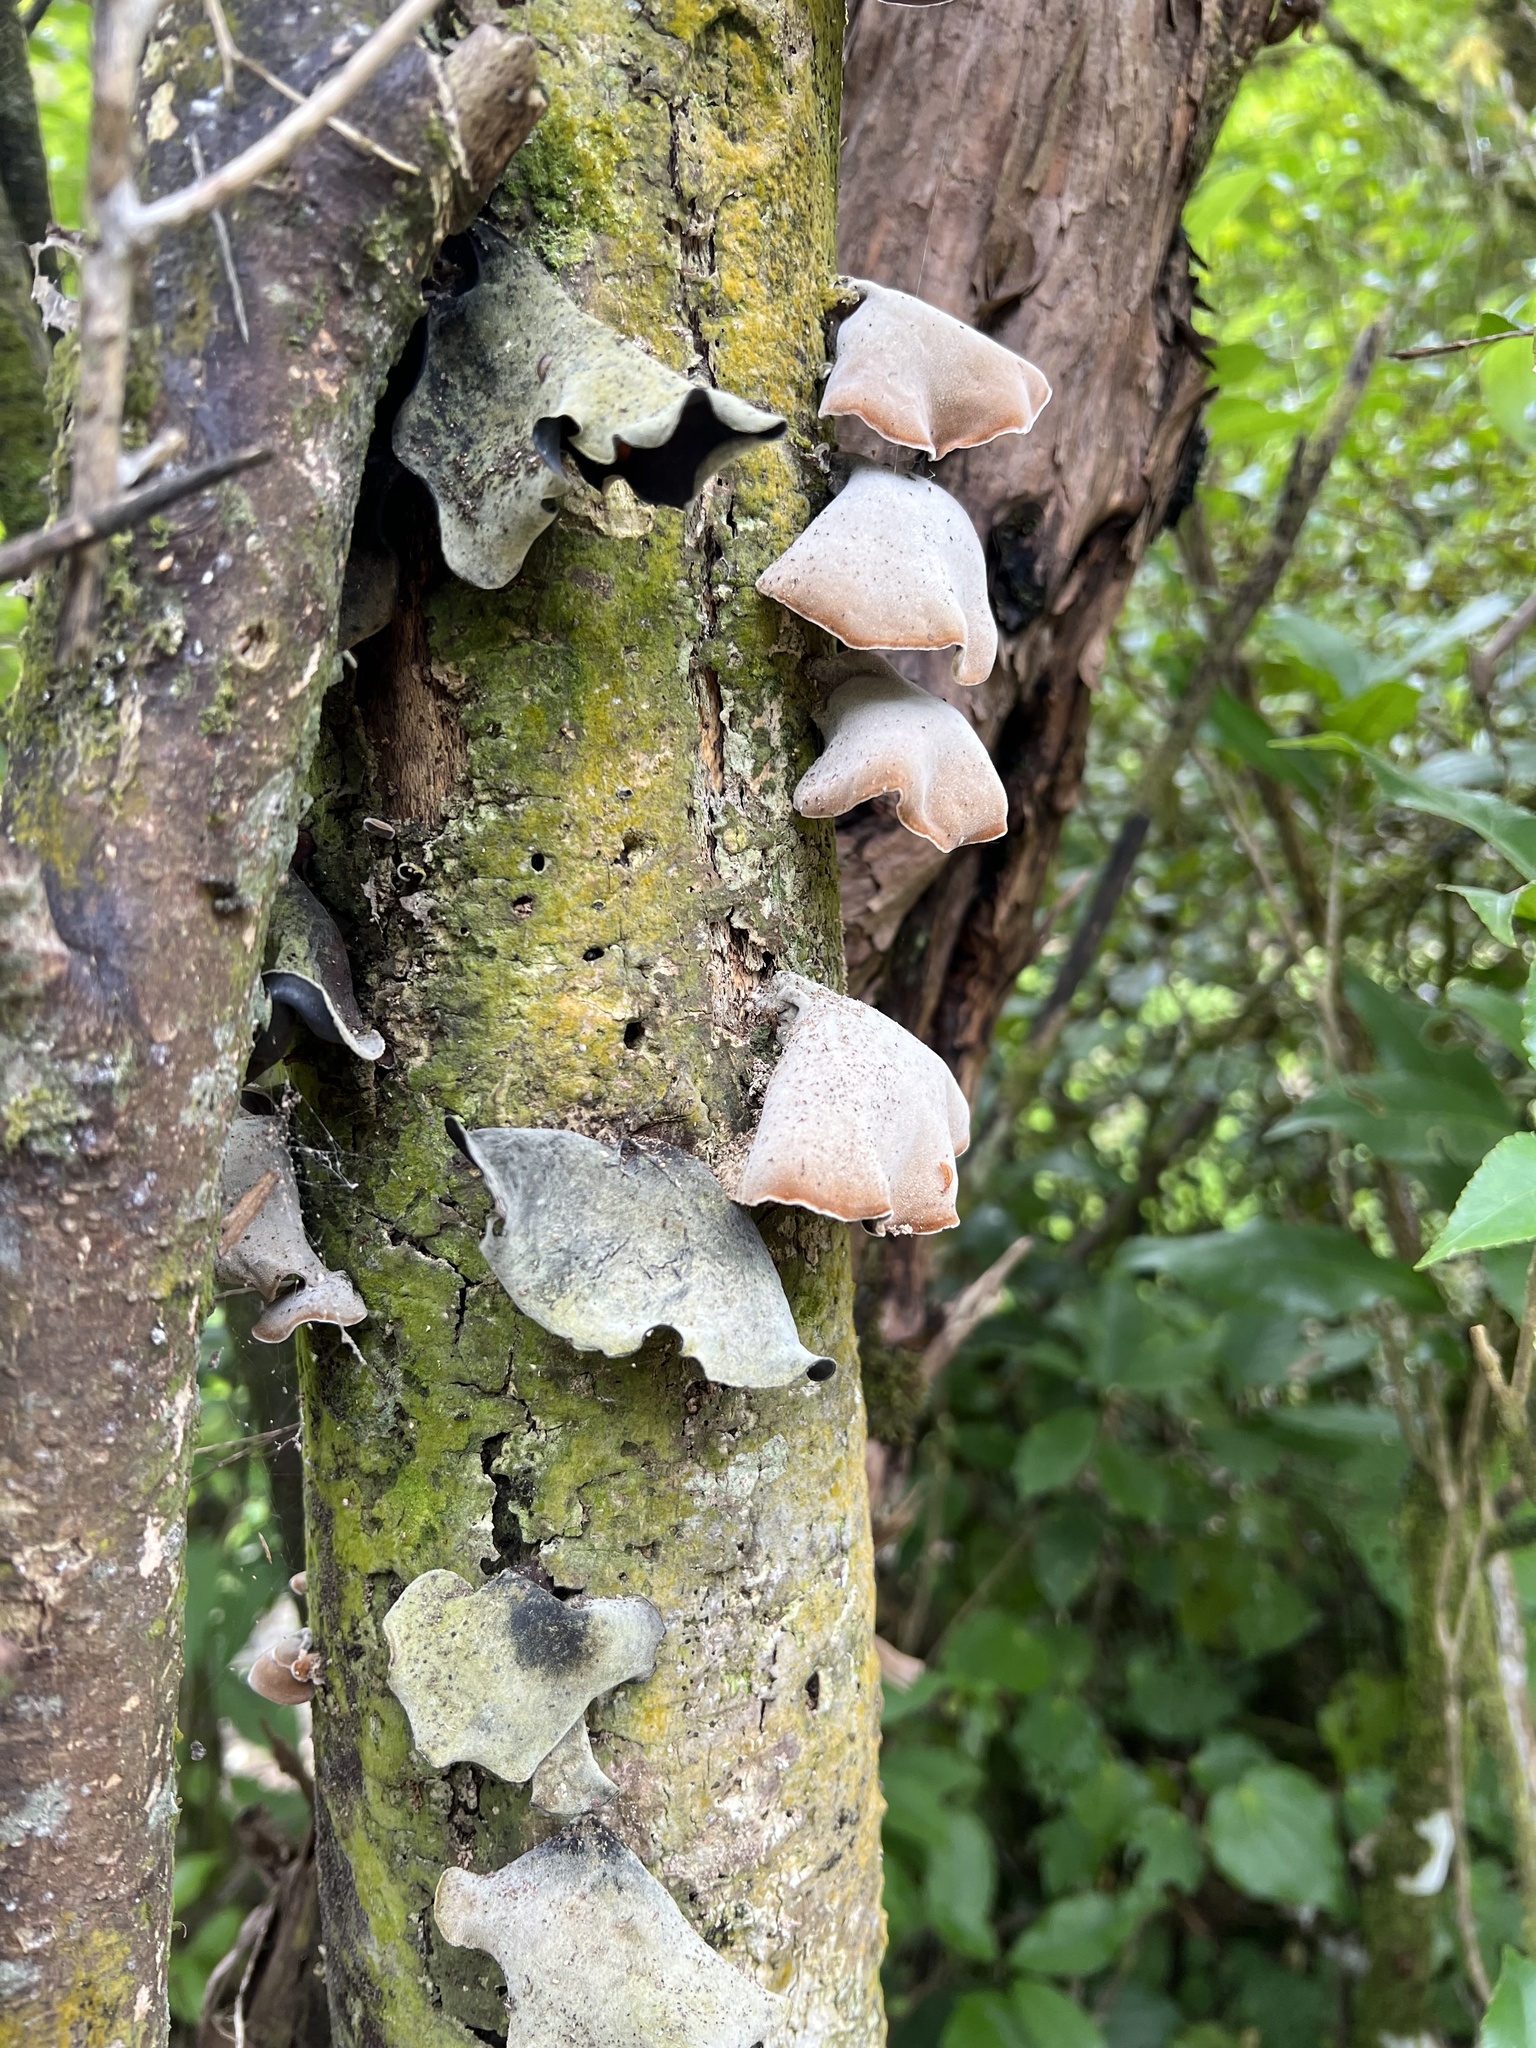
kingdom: Fungi
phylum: Basidiomycota
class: Agaricomycetes
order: Auriculariales
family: Auriculariaceae
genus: Auricularia
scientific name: Auricularia cornea
